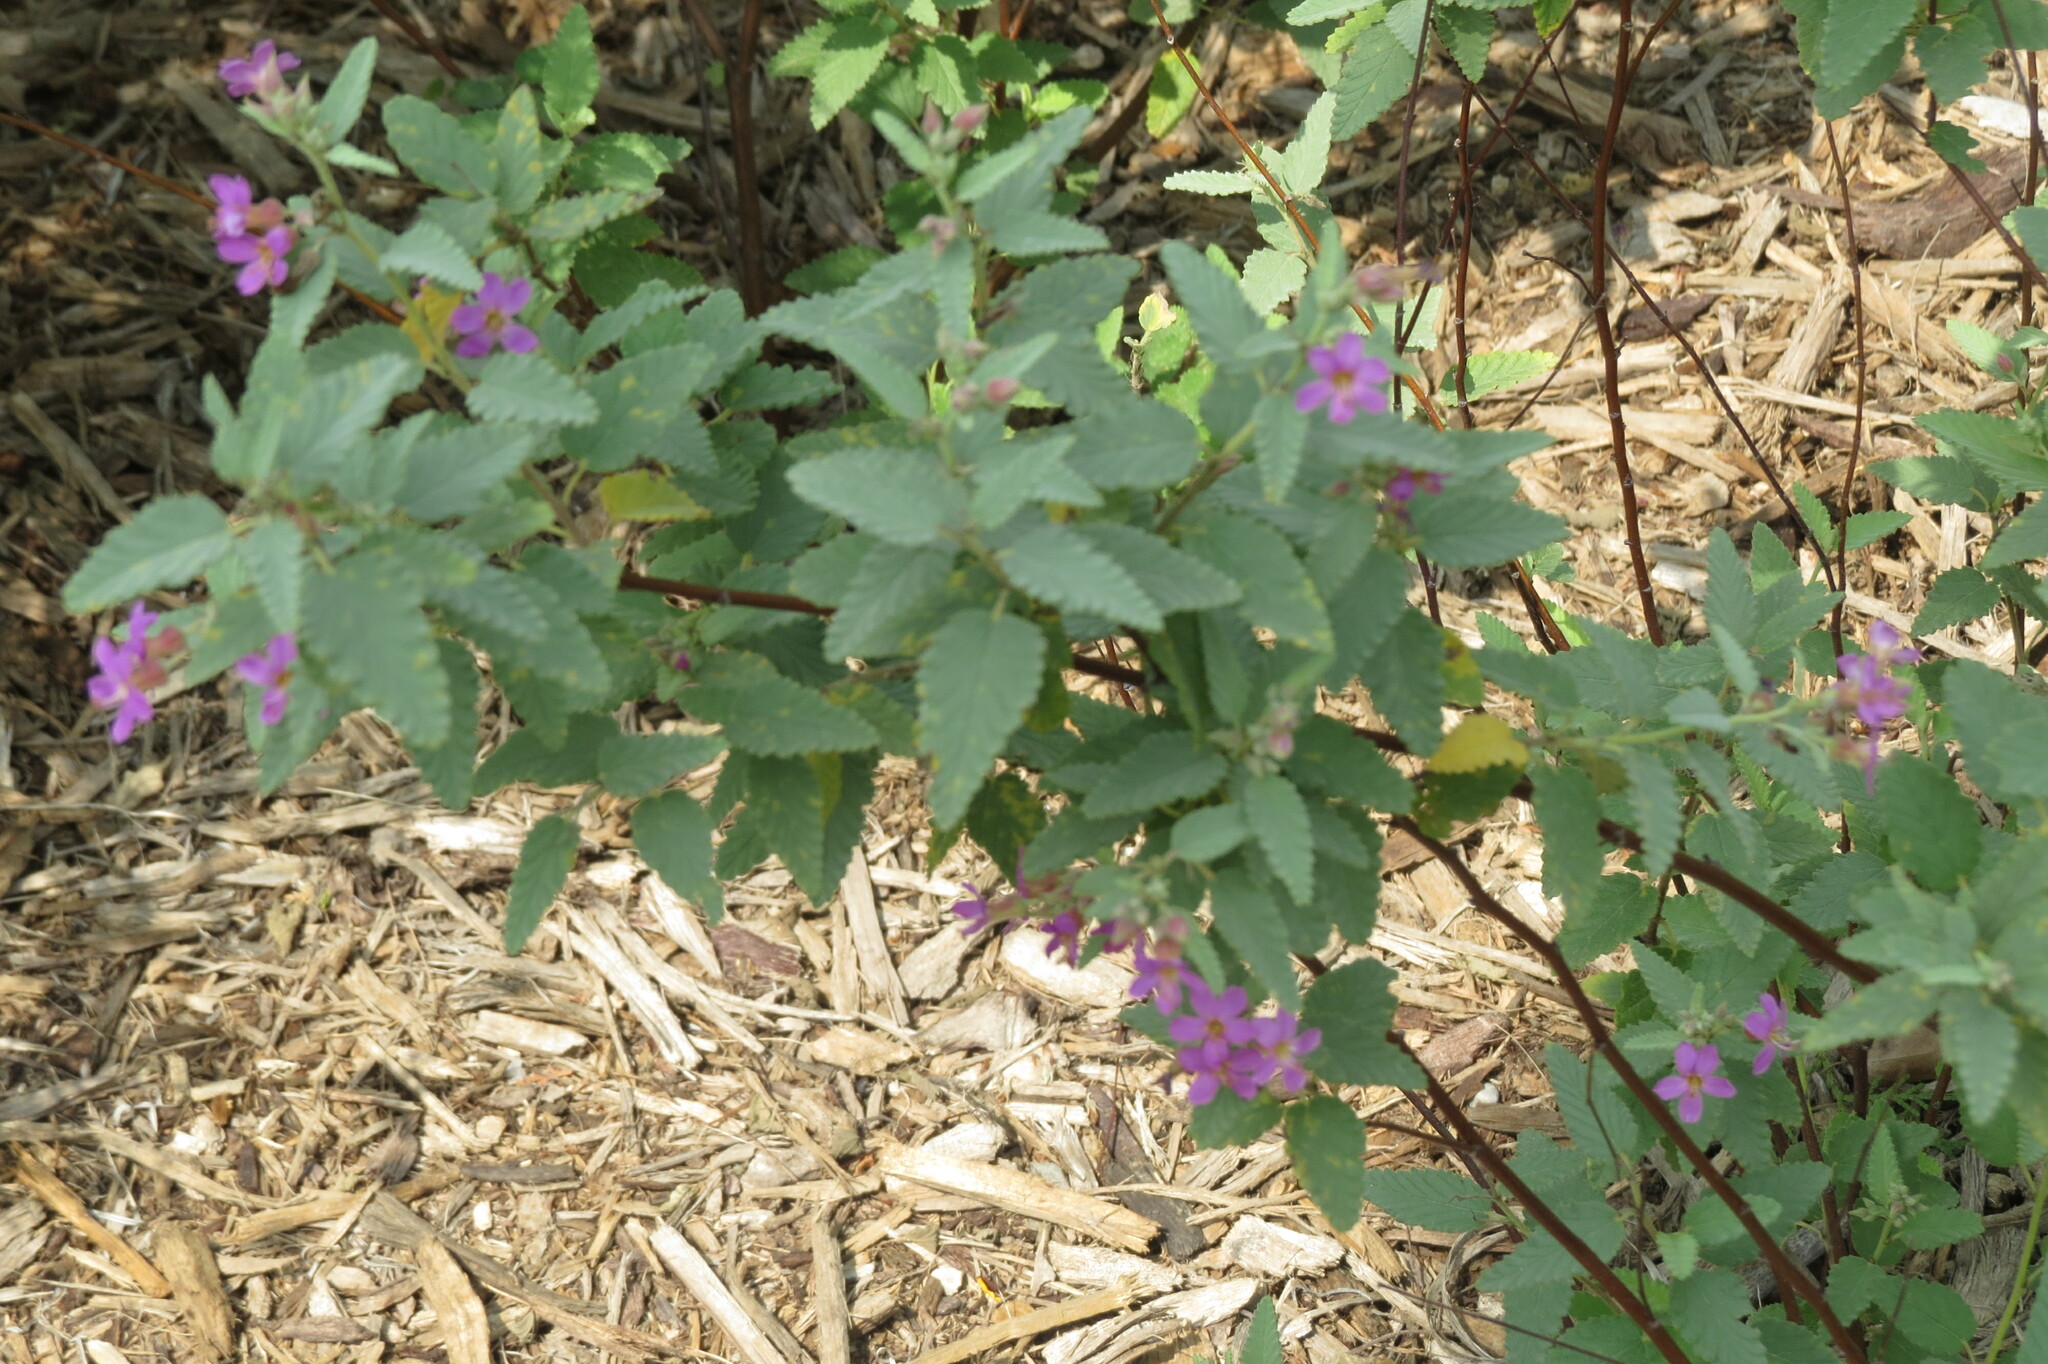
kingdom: Plantae
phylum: Tracheophyta
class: Magnoliopsida
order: Malvales
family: Malvaceae
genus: Melochia
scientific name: Melochia tomentosa
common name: Black torch
